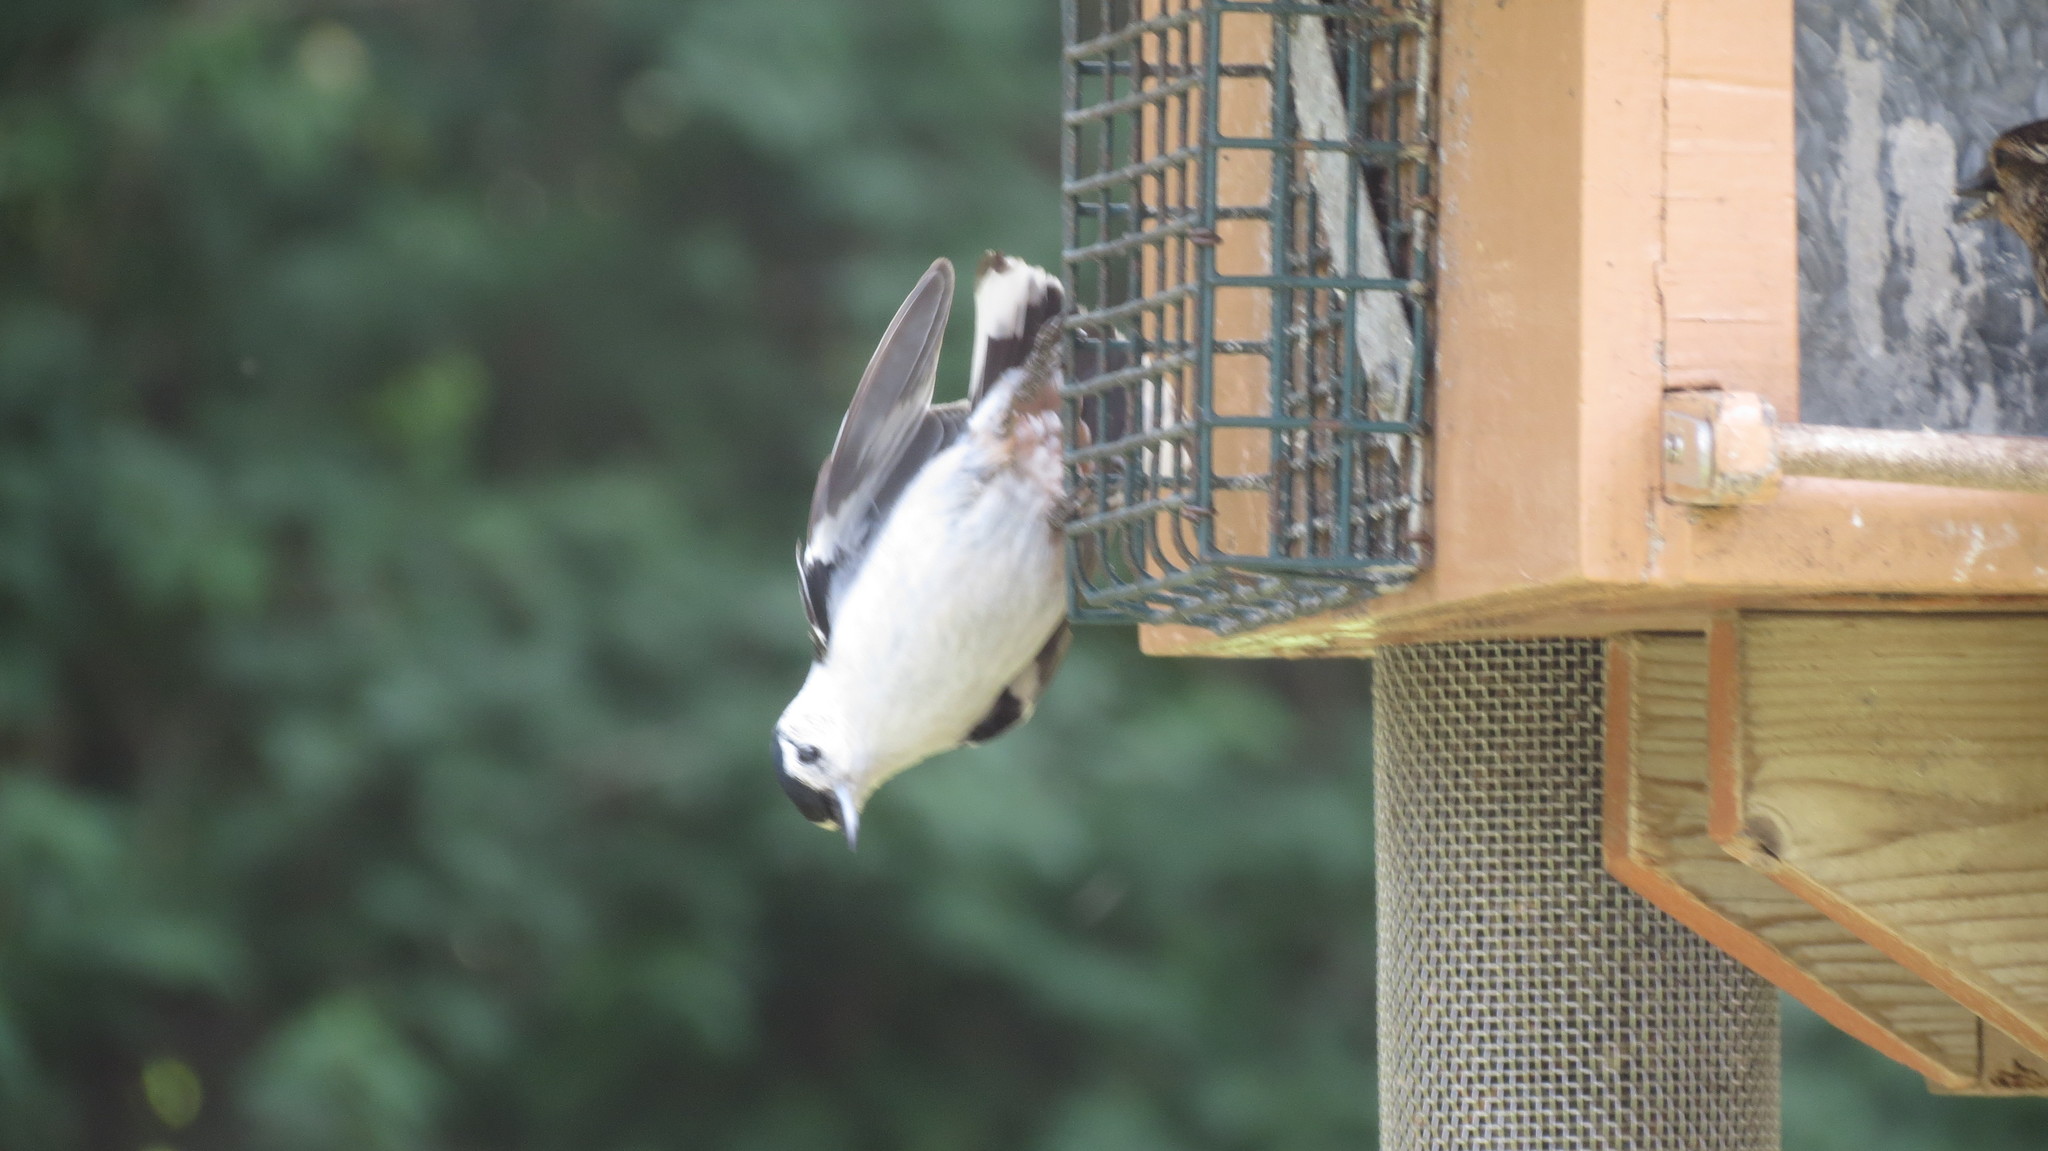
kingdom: Animalia
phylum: Chordata
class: Aves
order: Passeriformes
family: Sittidae
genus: Sitta
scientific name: Sitta carolinensis
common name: White-breasted nuthatch
